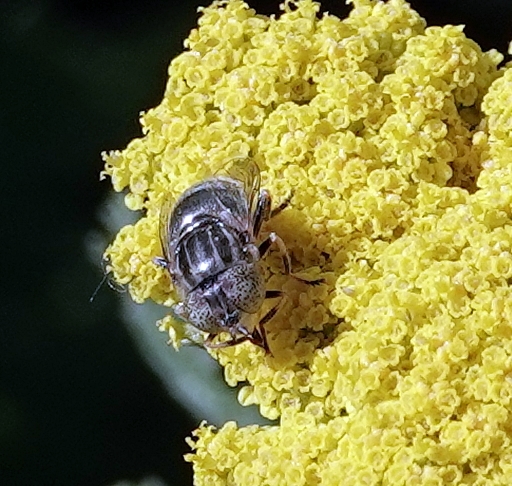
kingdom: Animalia
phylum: Arthropoda
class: Insecta
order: Diptera
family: Syrphidae
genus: Eristalinus
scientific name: Eristalinus aeneus
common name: Syrphid fly
